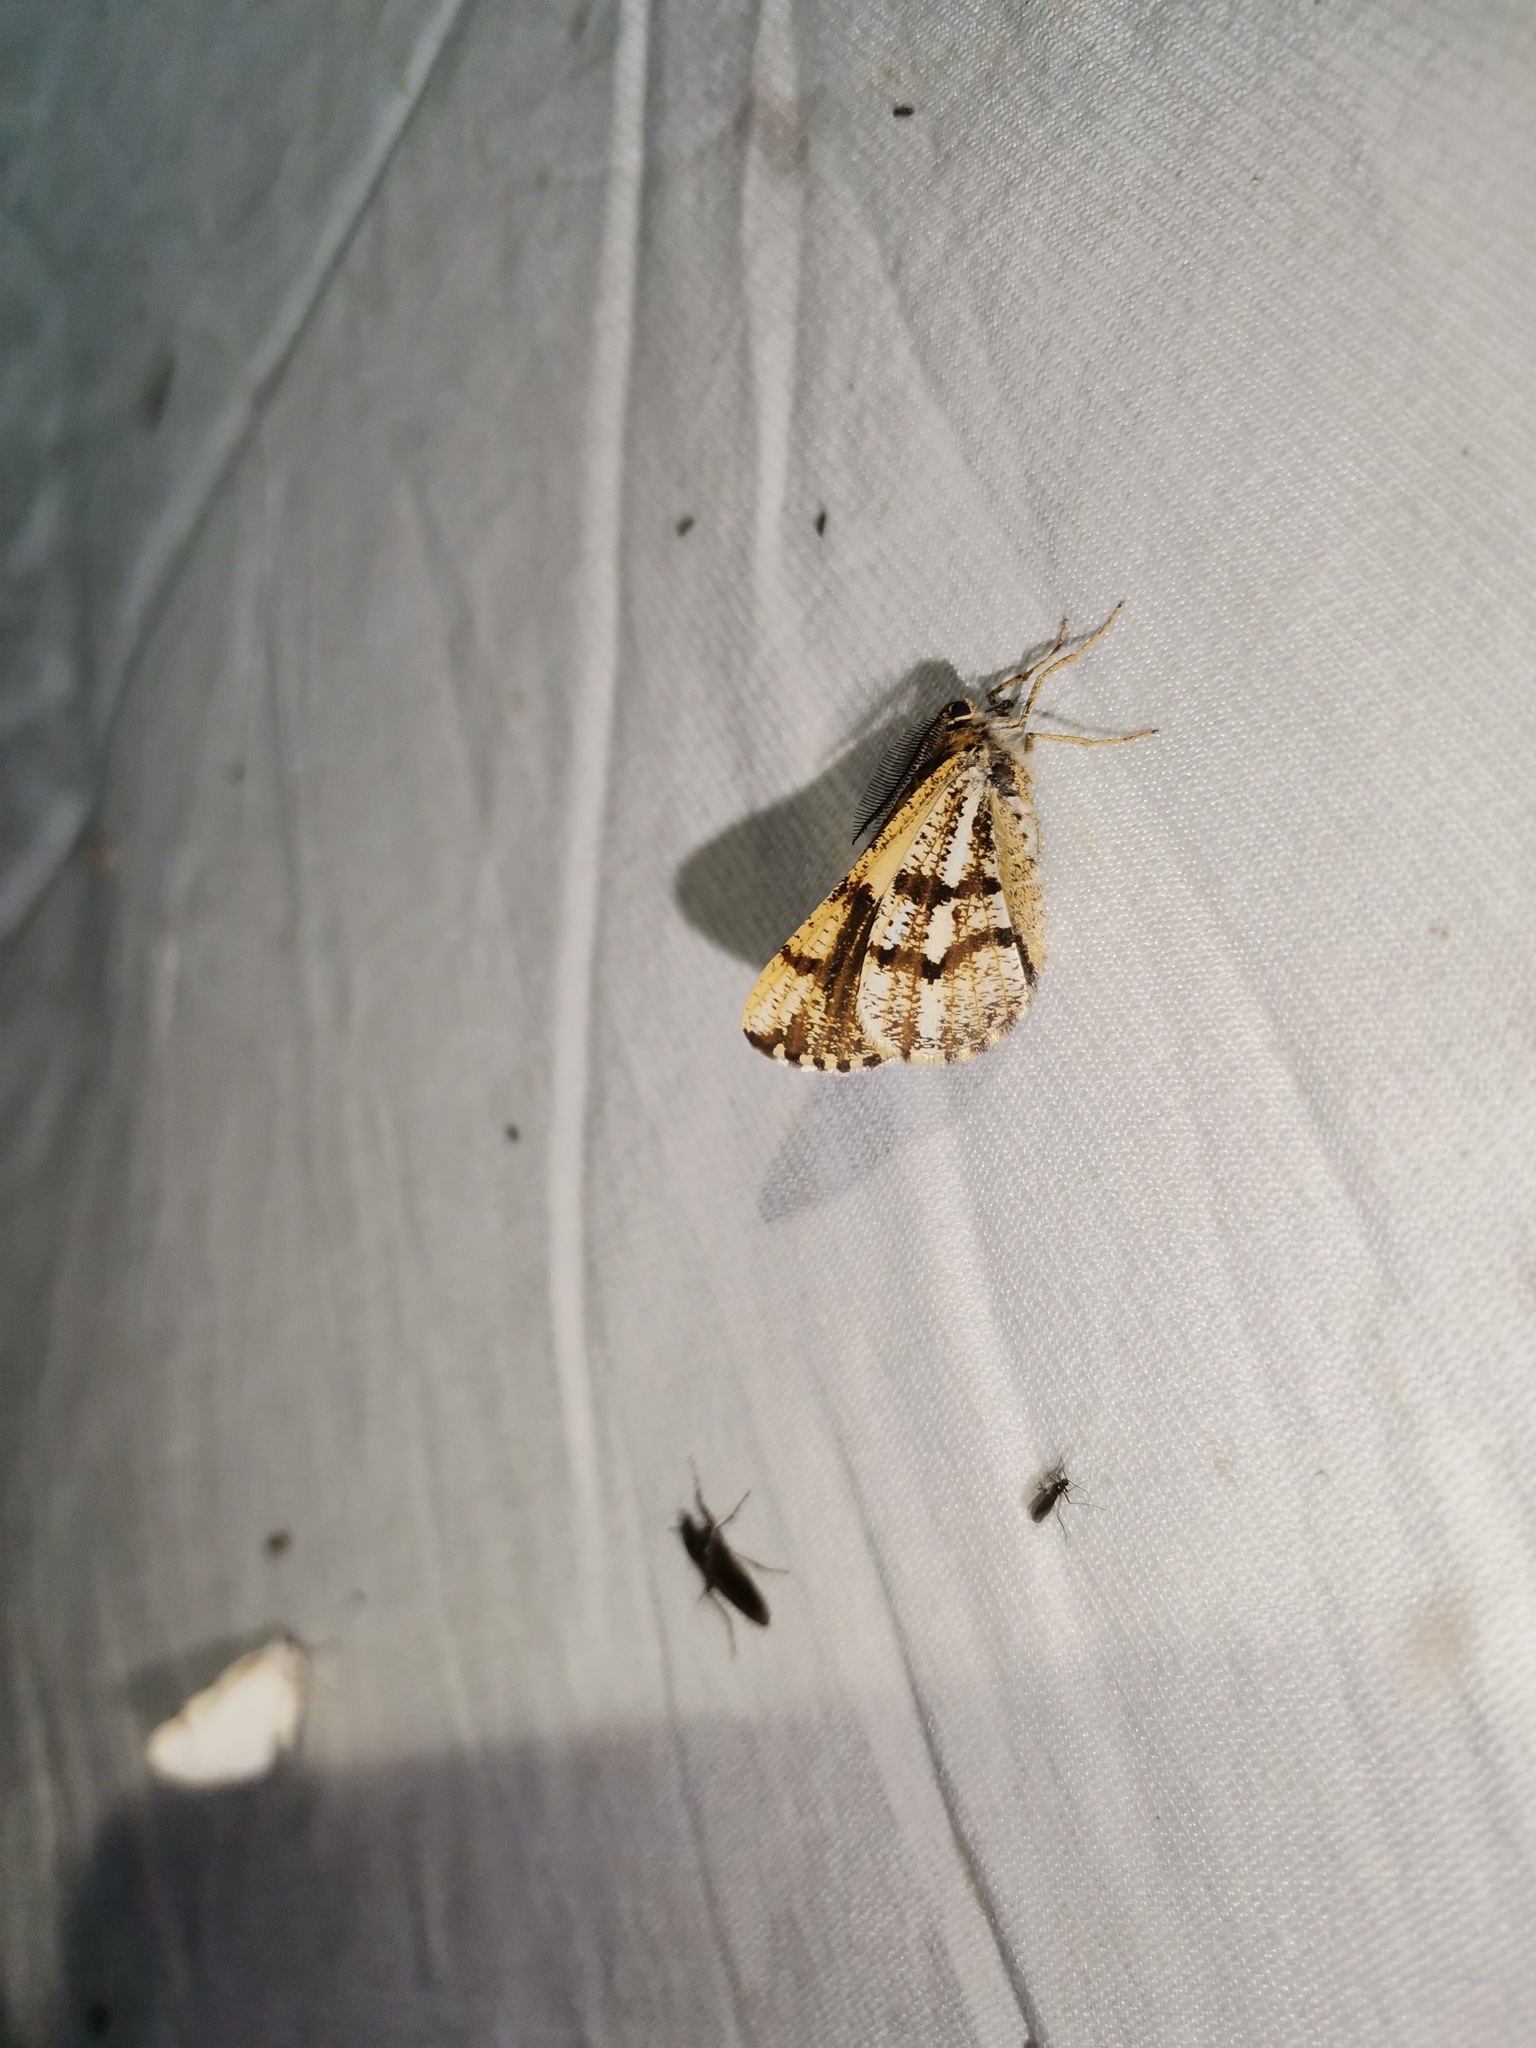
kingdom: Animalia
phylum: Arthropoda
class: Insecta
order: Lepidoptera
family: Geometridae
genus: Bupalus
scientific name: Bupalus piniaria
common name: Bordered white
